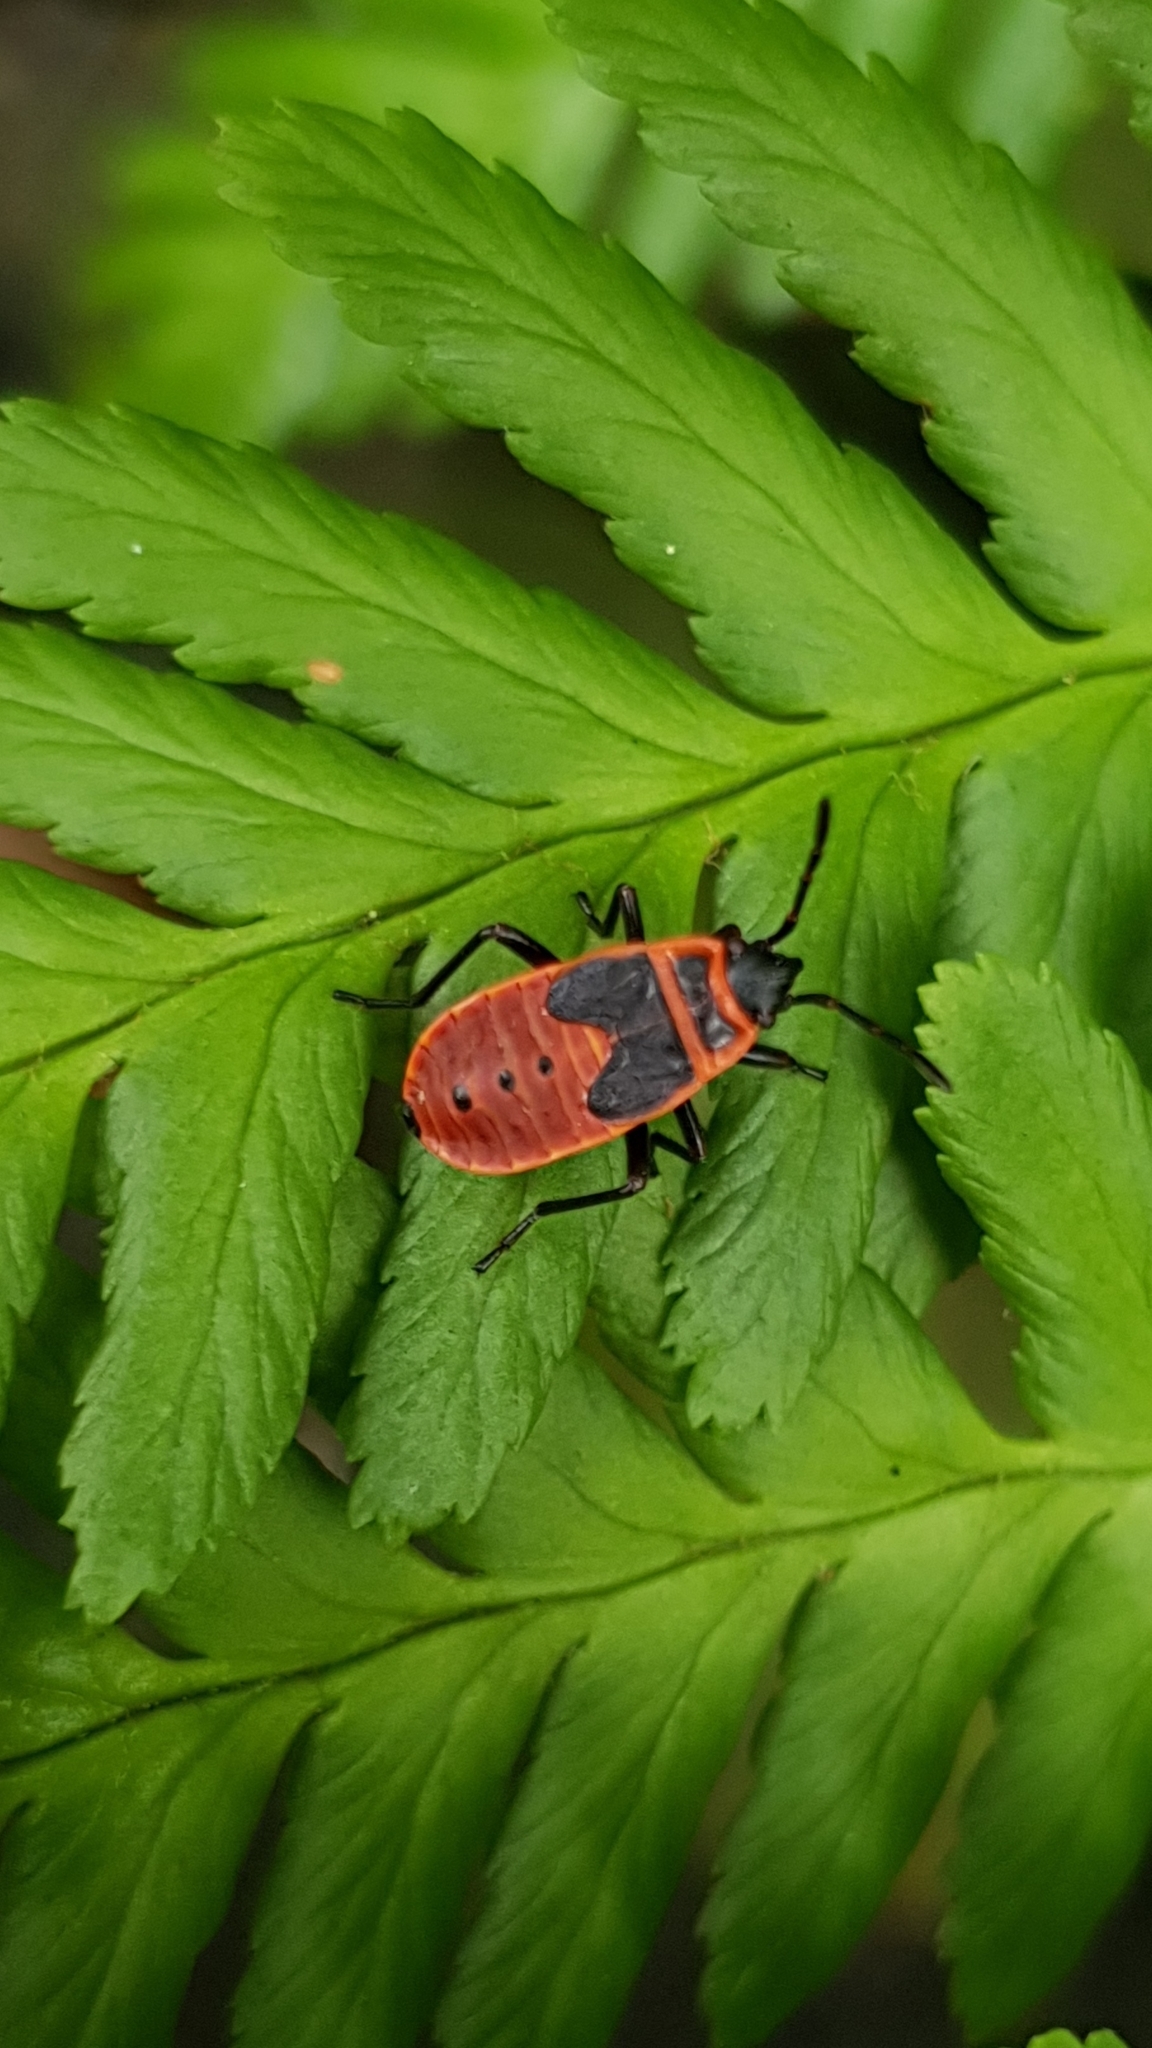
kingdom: Animalia
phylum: Arthropoda
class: Insecta
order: Hemiptera
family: Pyrrhocoridae
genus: Pyrrhocoris
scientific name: Pyrrhocoris apterus
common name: Firebug
